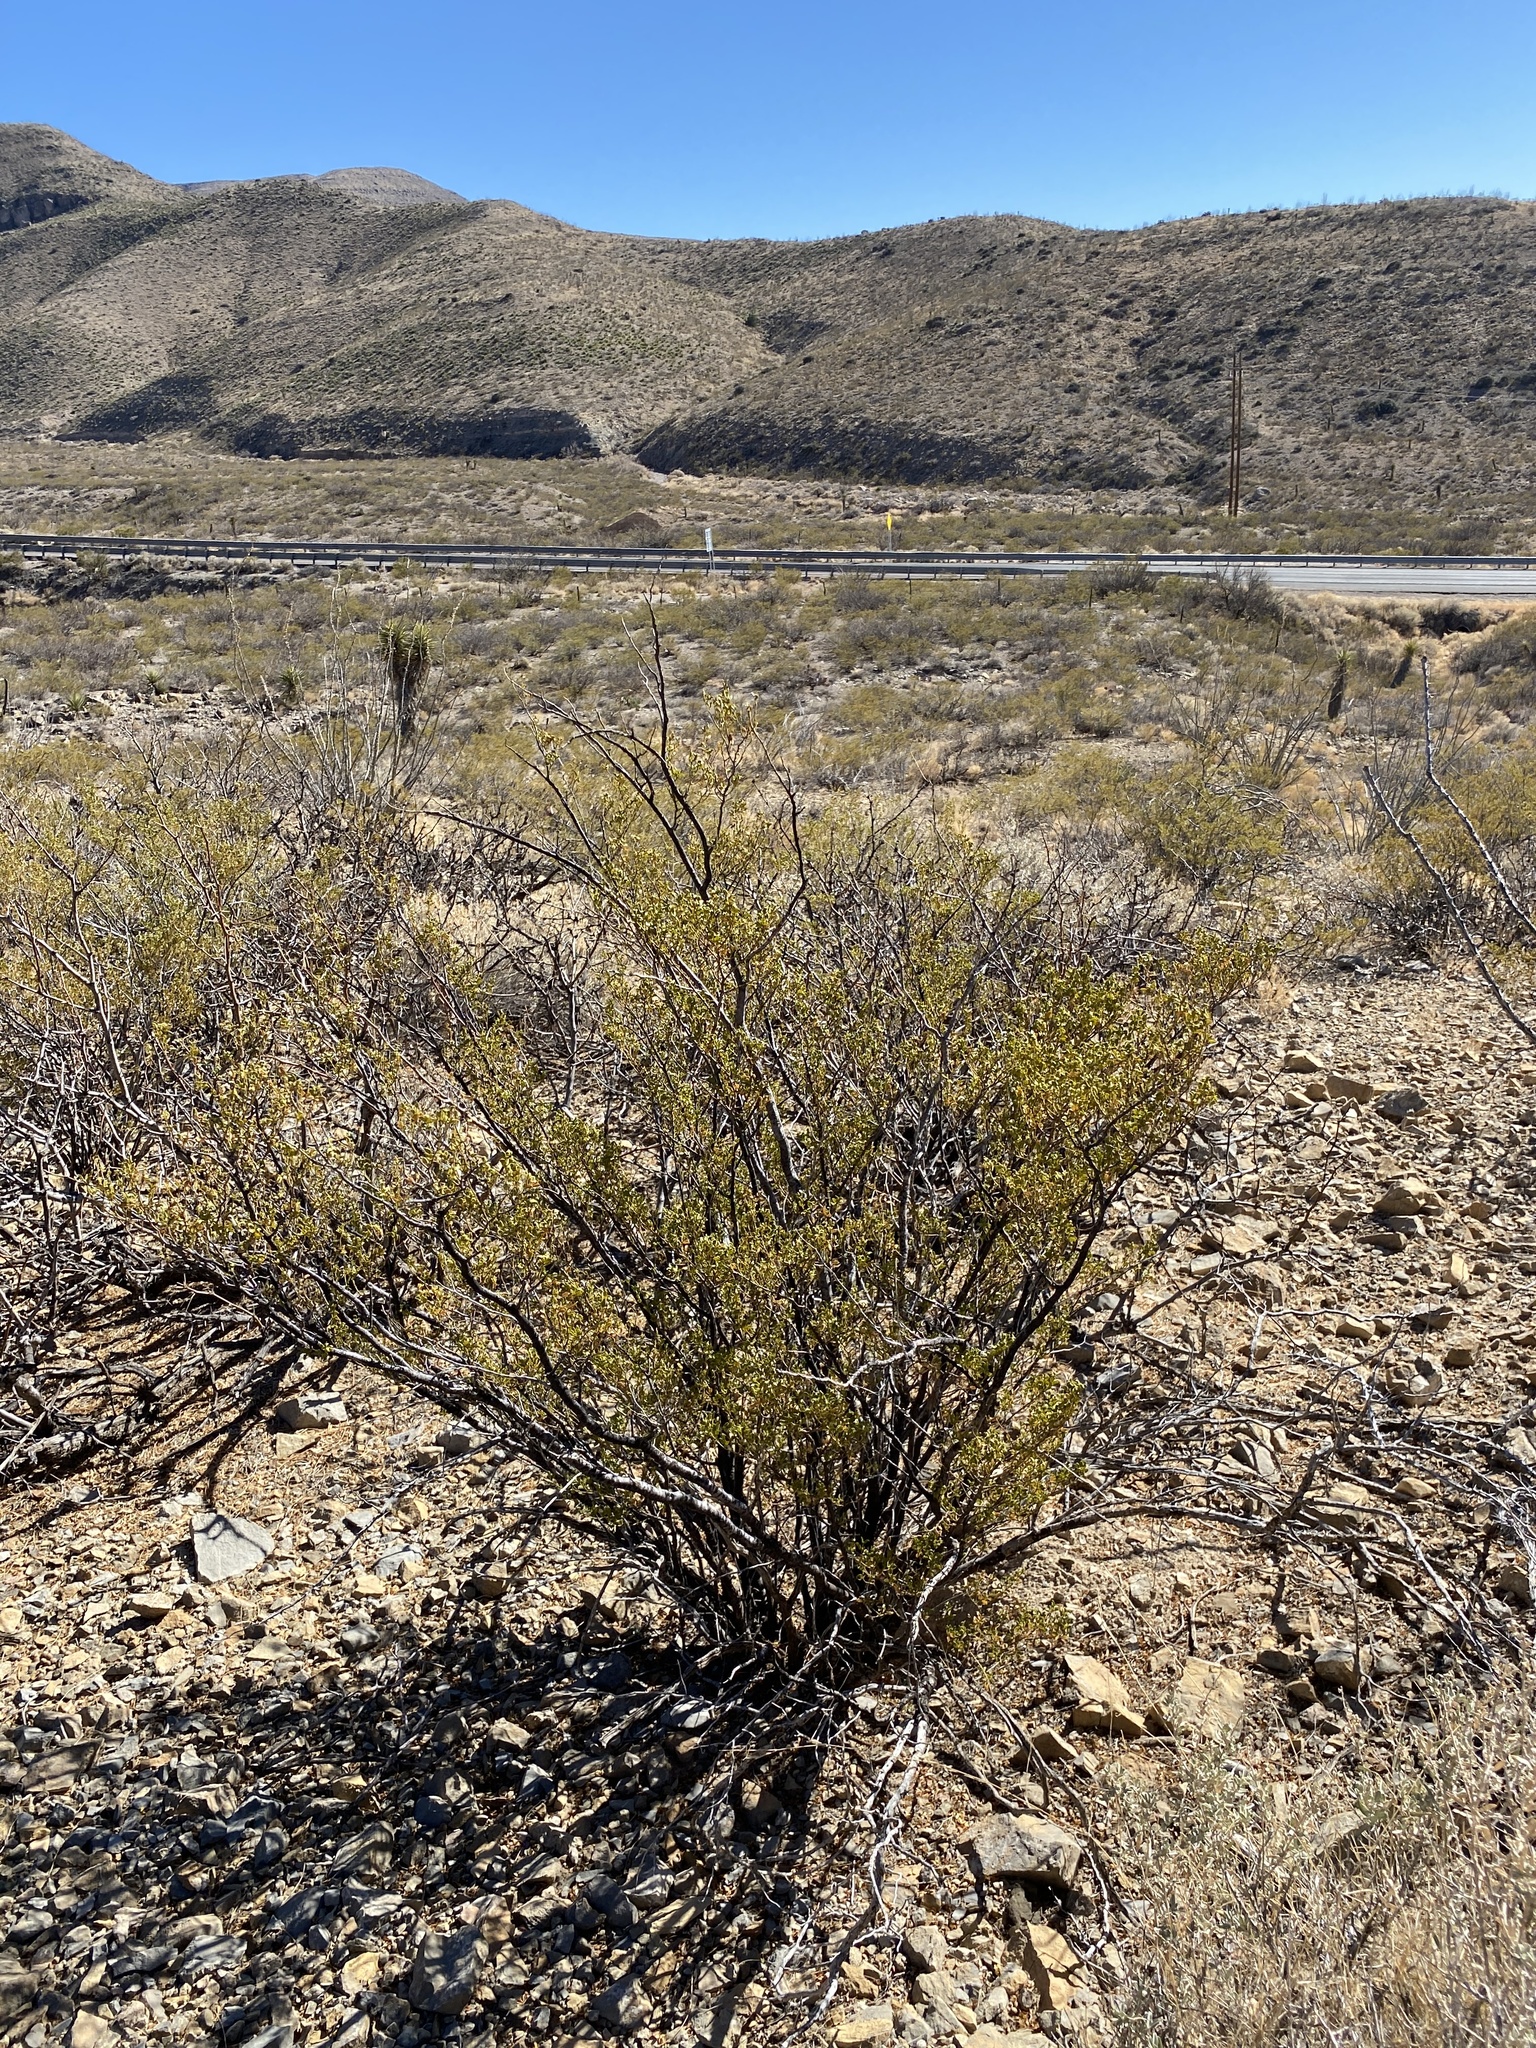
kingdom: Plantae
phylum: Tracheophyta
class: Magnoliopsida
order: Zygophyllales
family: Zygophyllaceae
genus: Larrea
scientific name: Larrea tridentata
